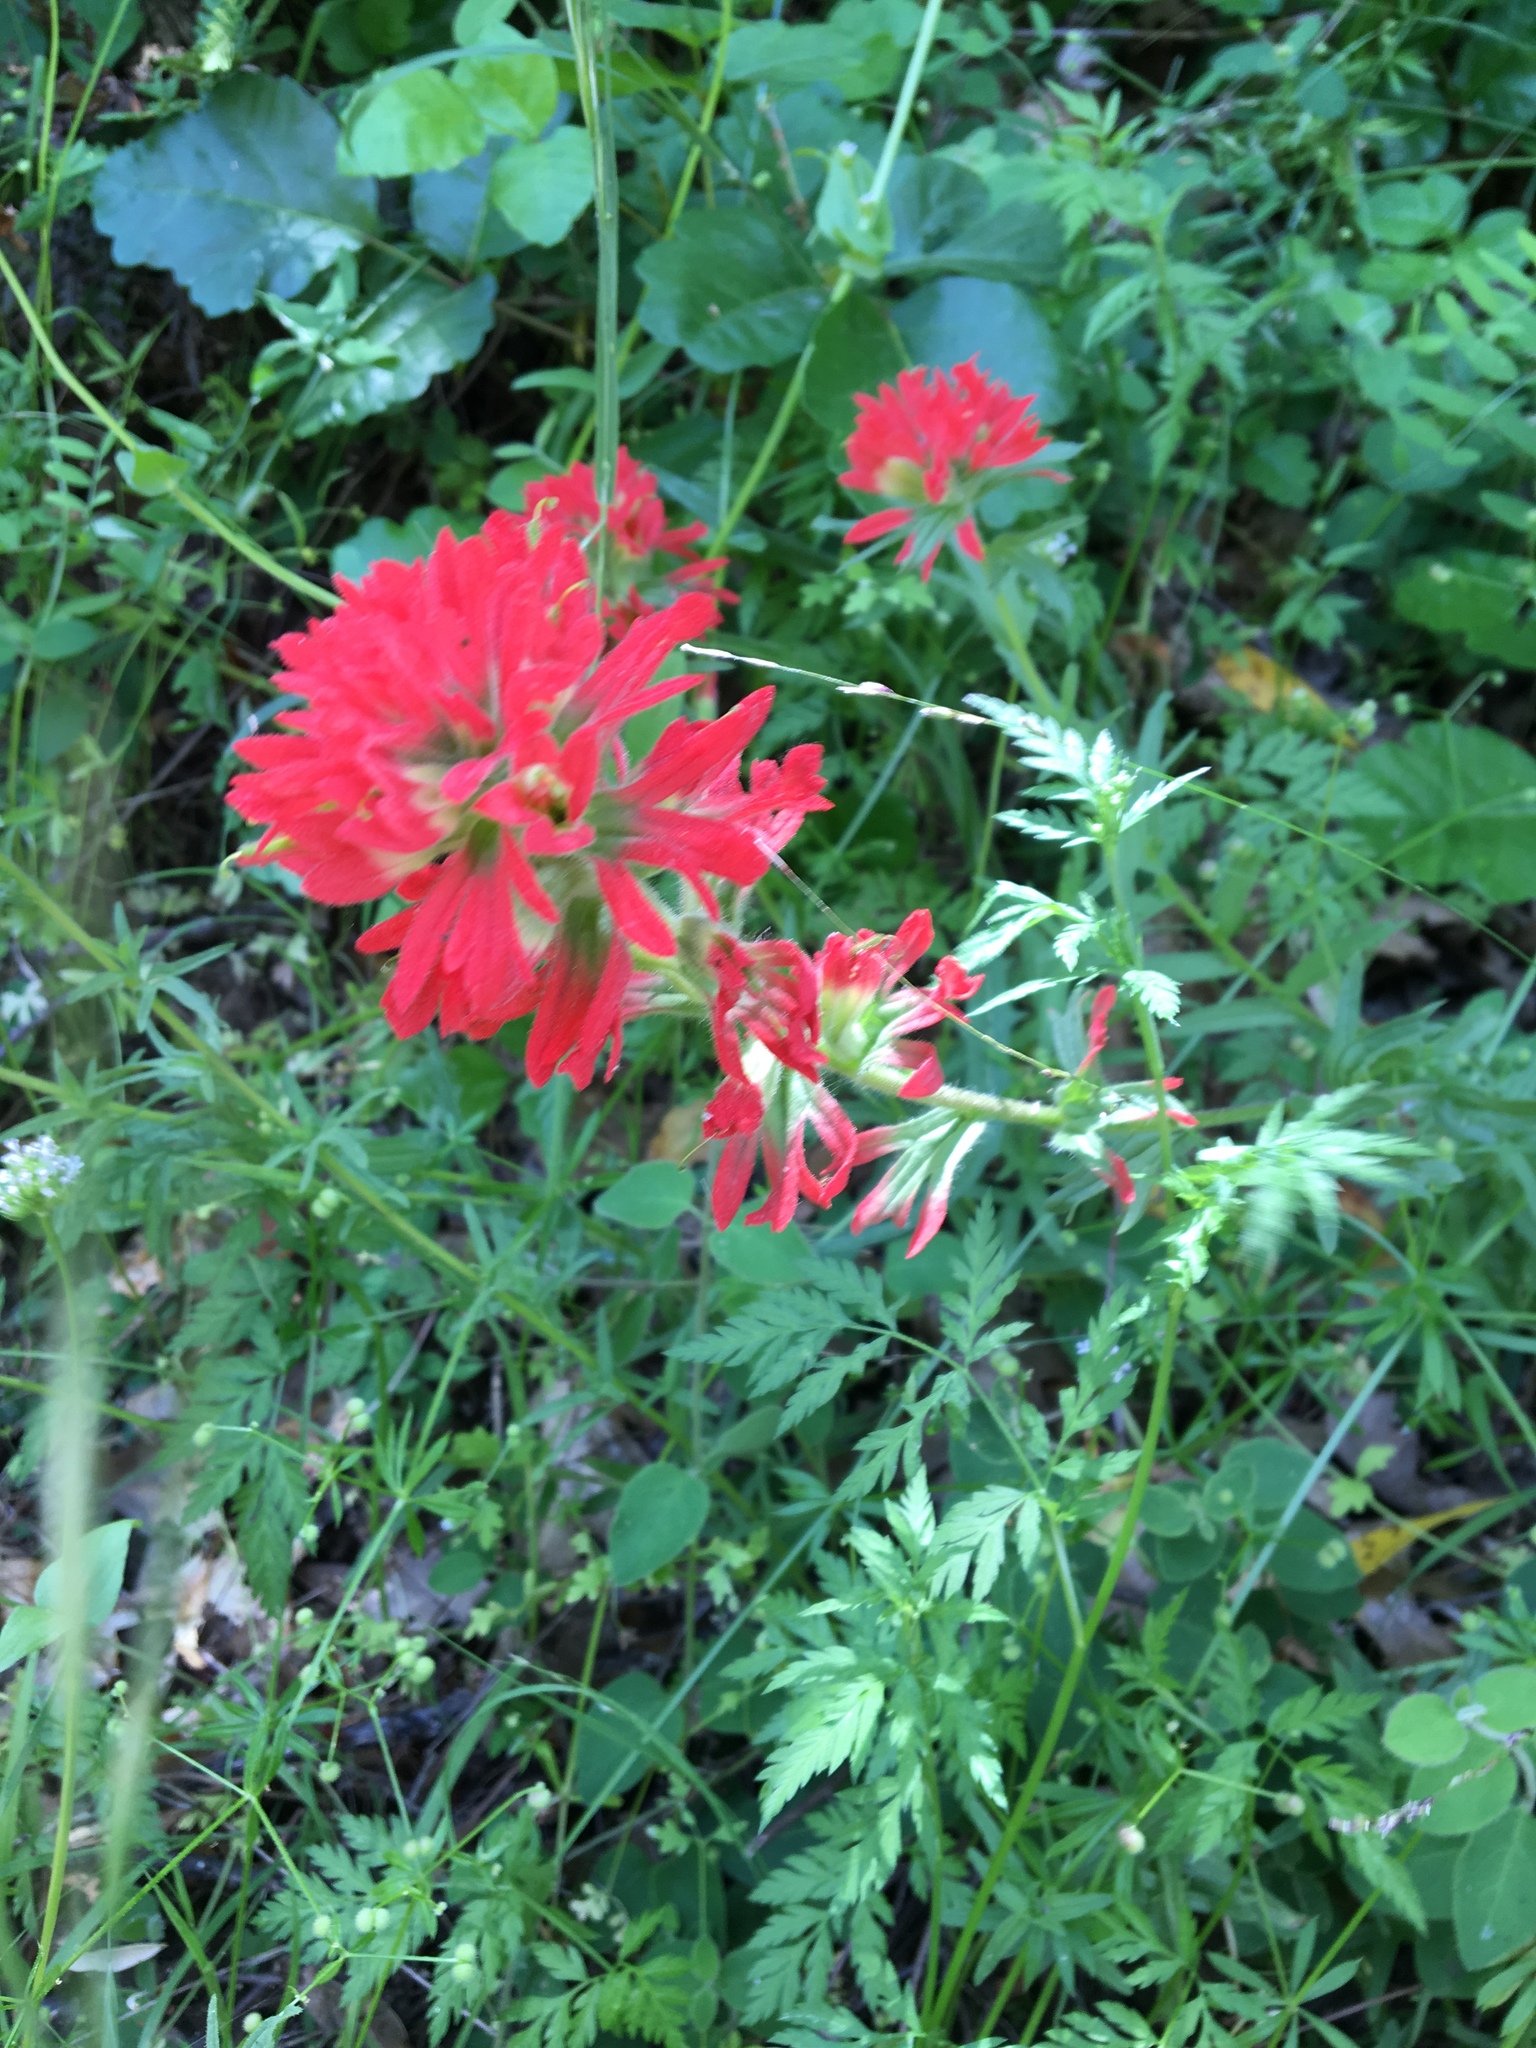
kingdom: Plantae
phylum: Tracheophyta
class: Magnoliopsida
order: Lamiales
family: Orobanchaceae
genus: Castilleja
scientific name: Castilleja affinis
